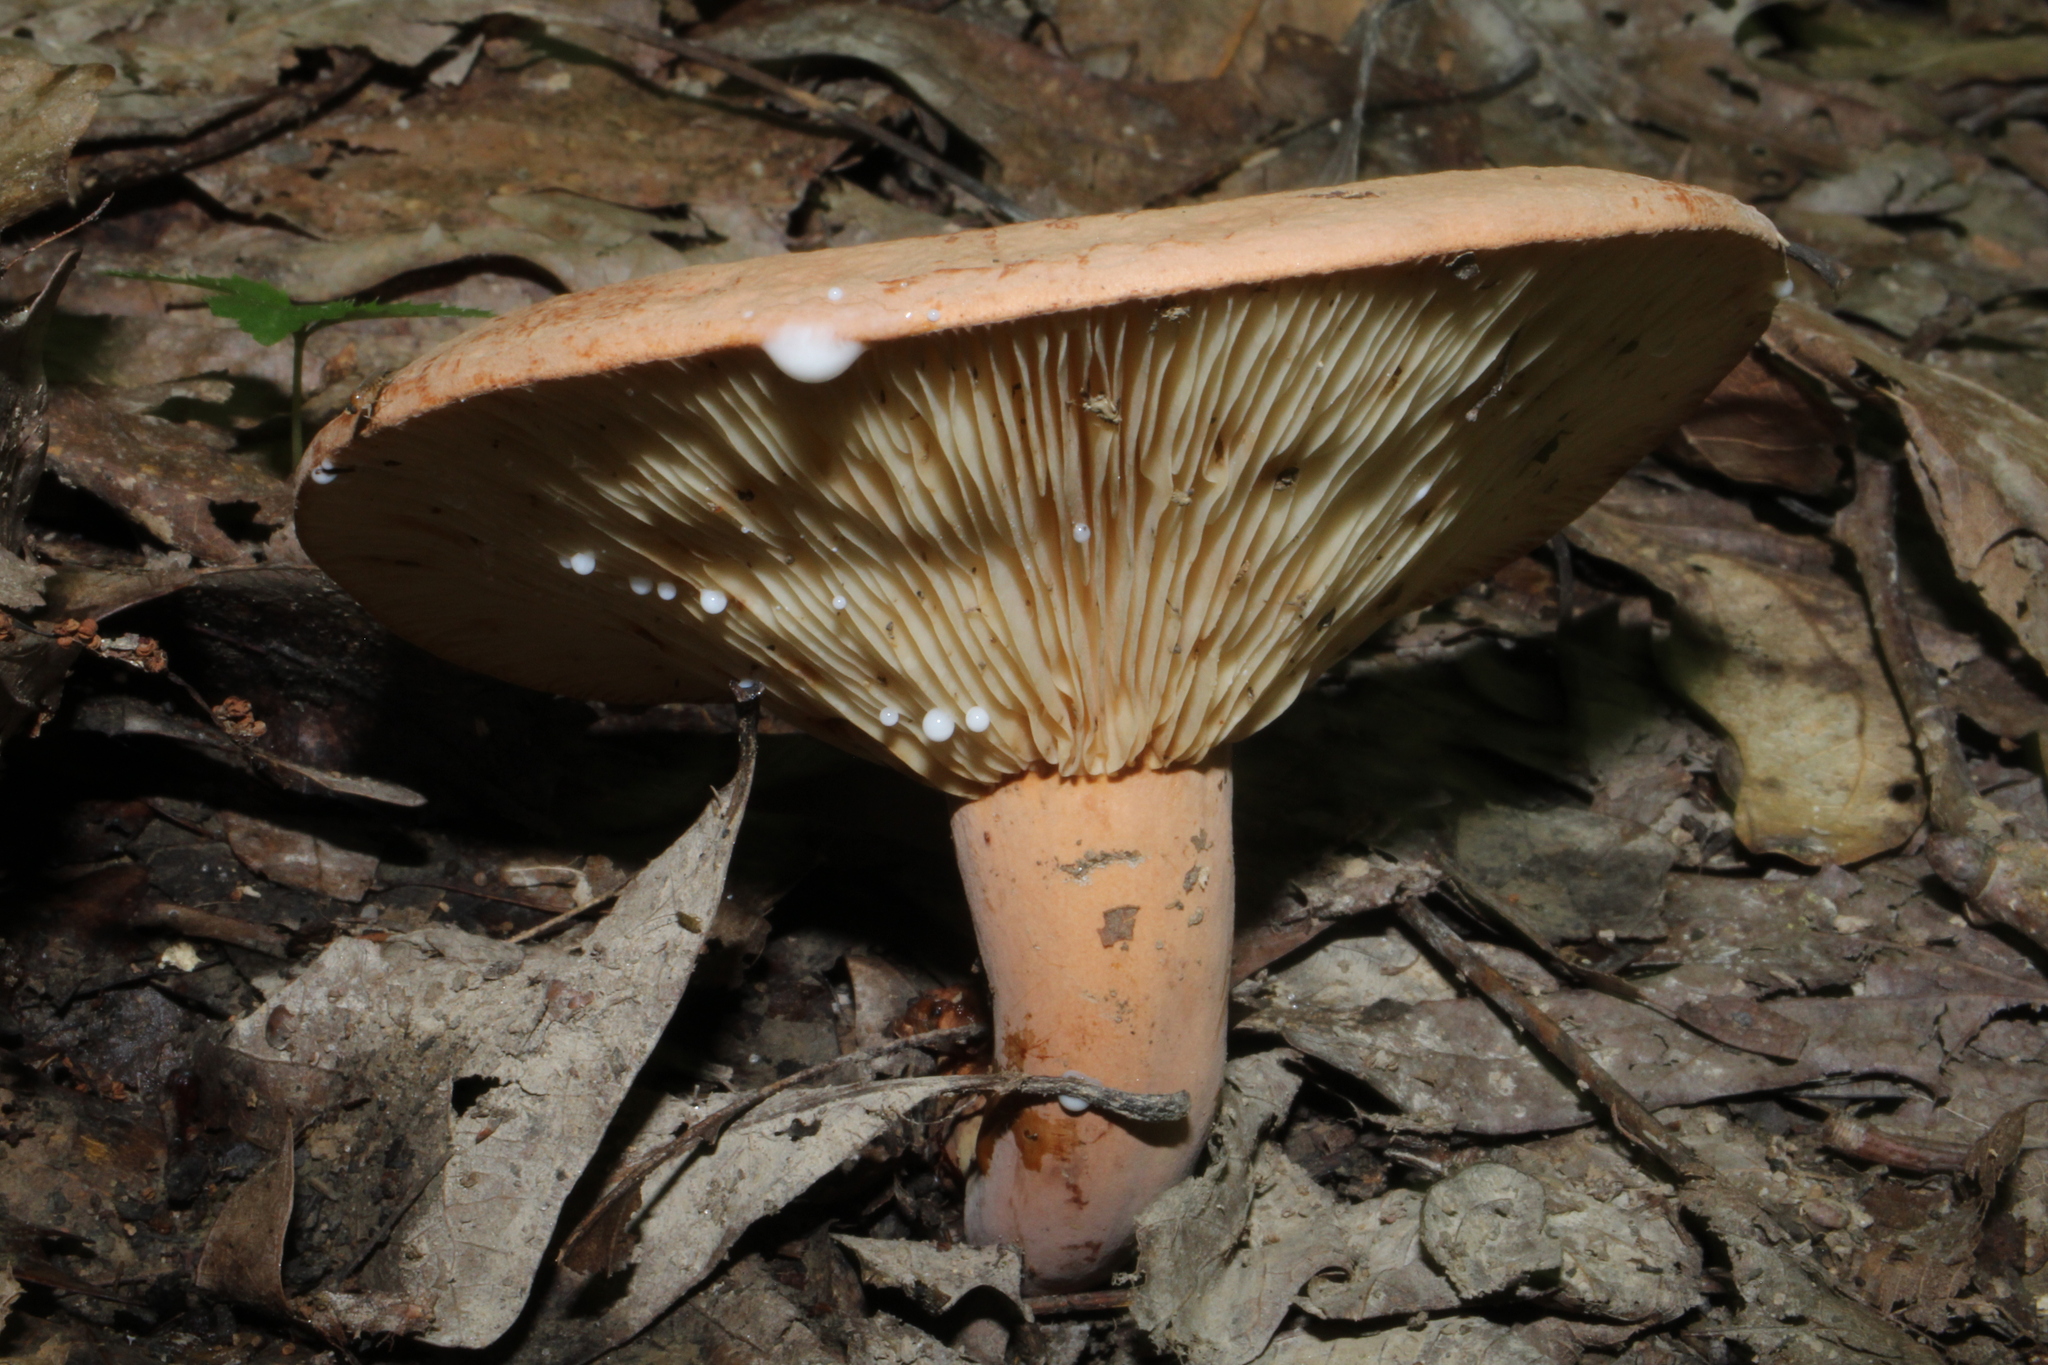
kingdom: Fungi
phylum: Basidiomycota
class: Agaricomycetes
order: Russulales
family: Russulaceae
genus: Lactifluus
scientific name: Lactifluus volemus
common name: Fishy milkcap
